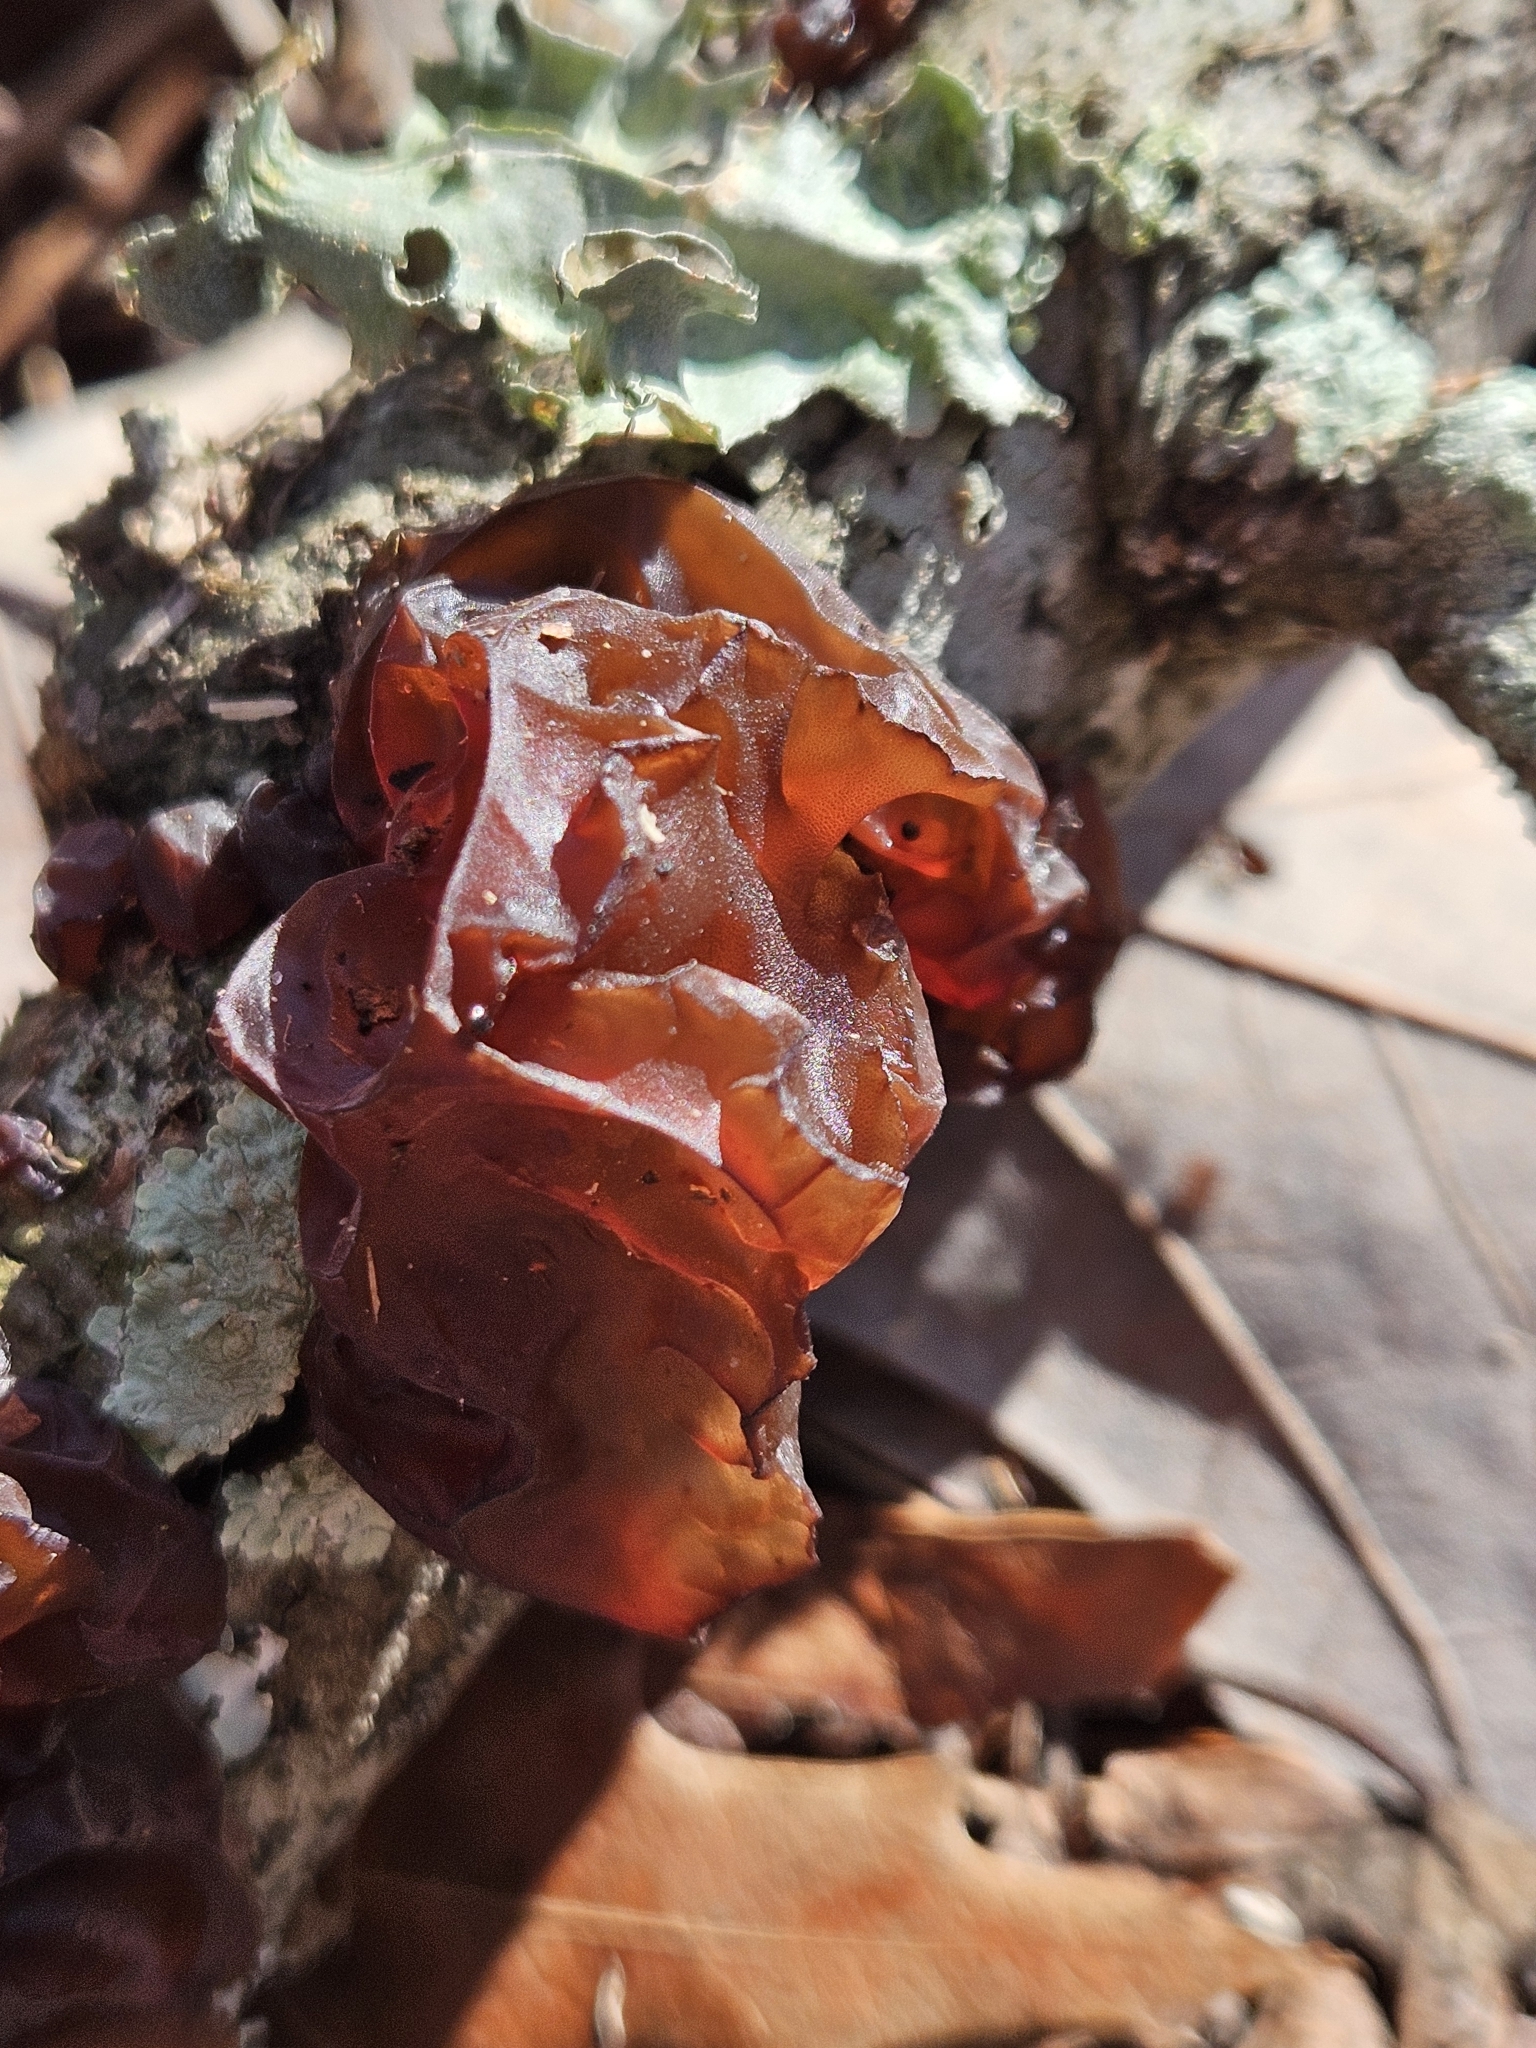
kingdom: Fungi
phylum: Basidiomycota
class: Agaricomycetes
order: Auriculariales
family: Auriculariaceae
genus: Exidia
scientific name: Exidia
